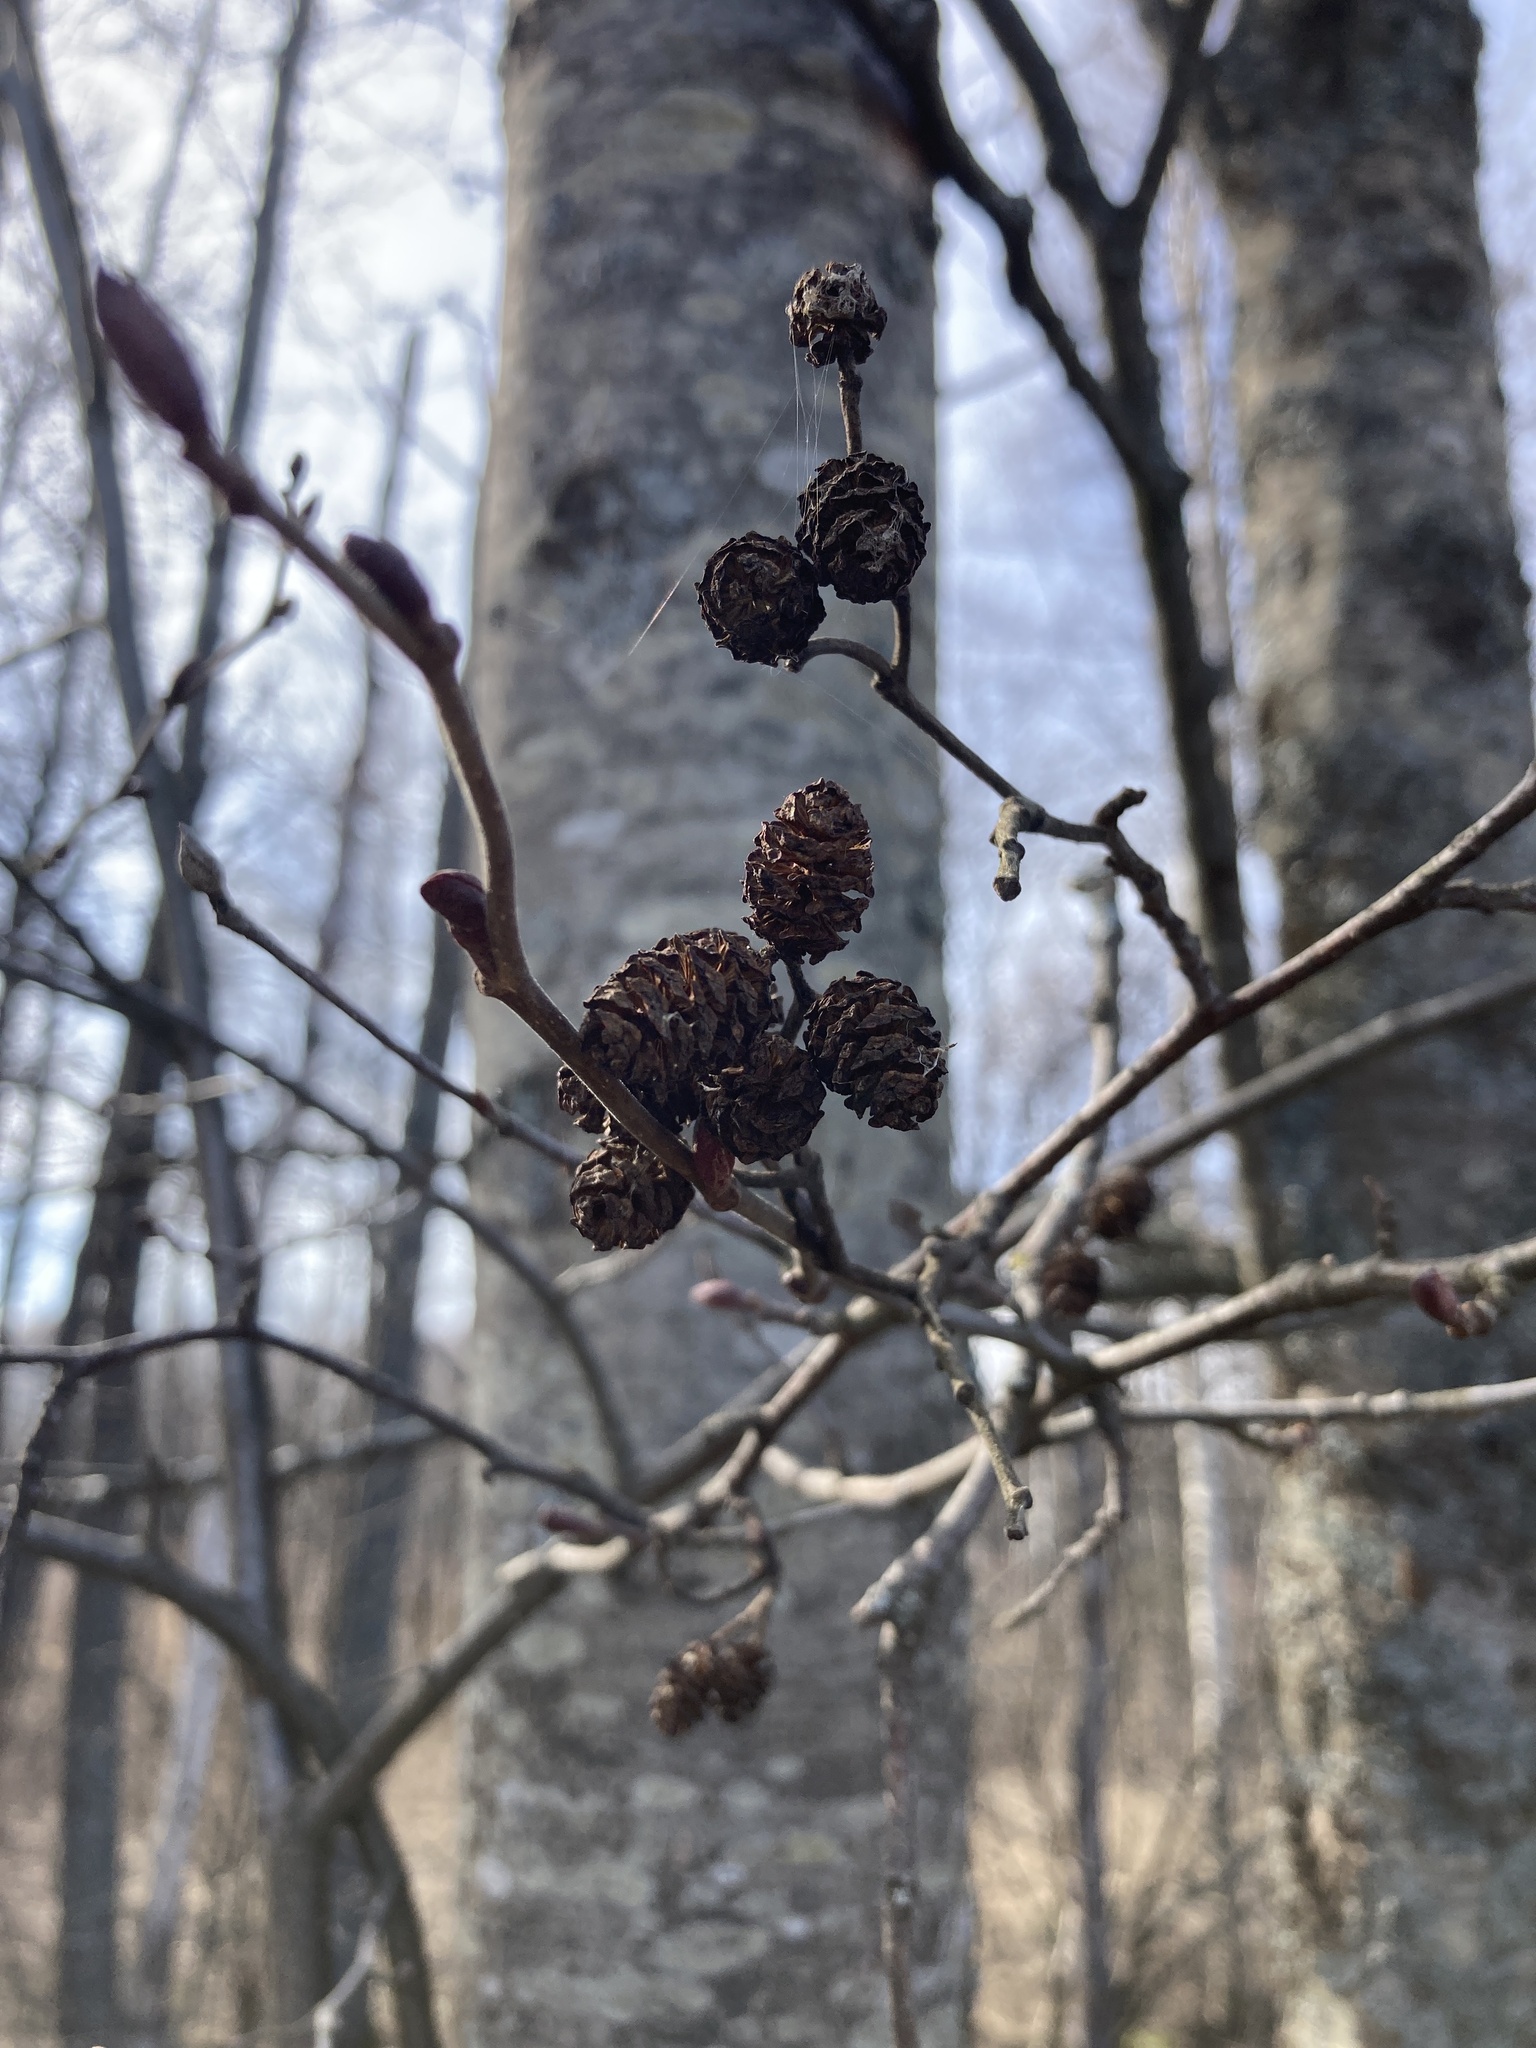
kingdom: Plantae
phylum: Tracheophyta
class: Magnoliopsida
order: Fagales
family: Betulaceae
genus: Alnus
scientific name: Alnus incana
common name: Grey alder
